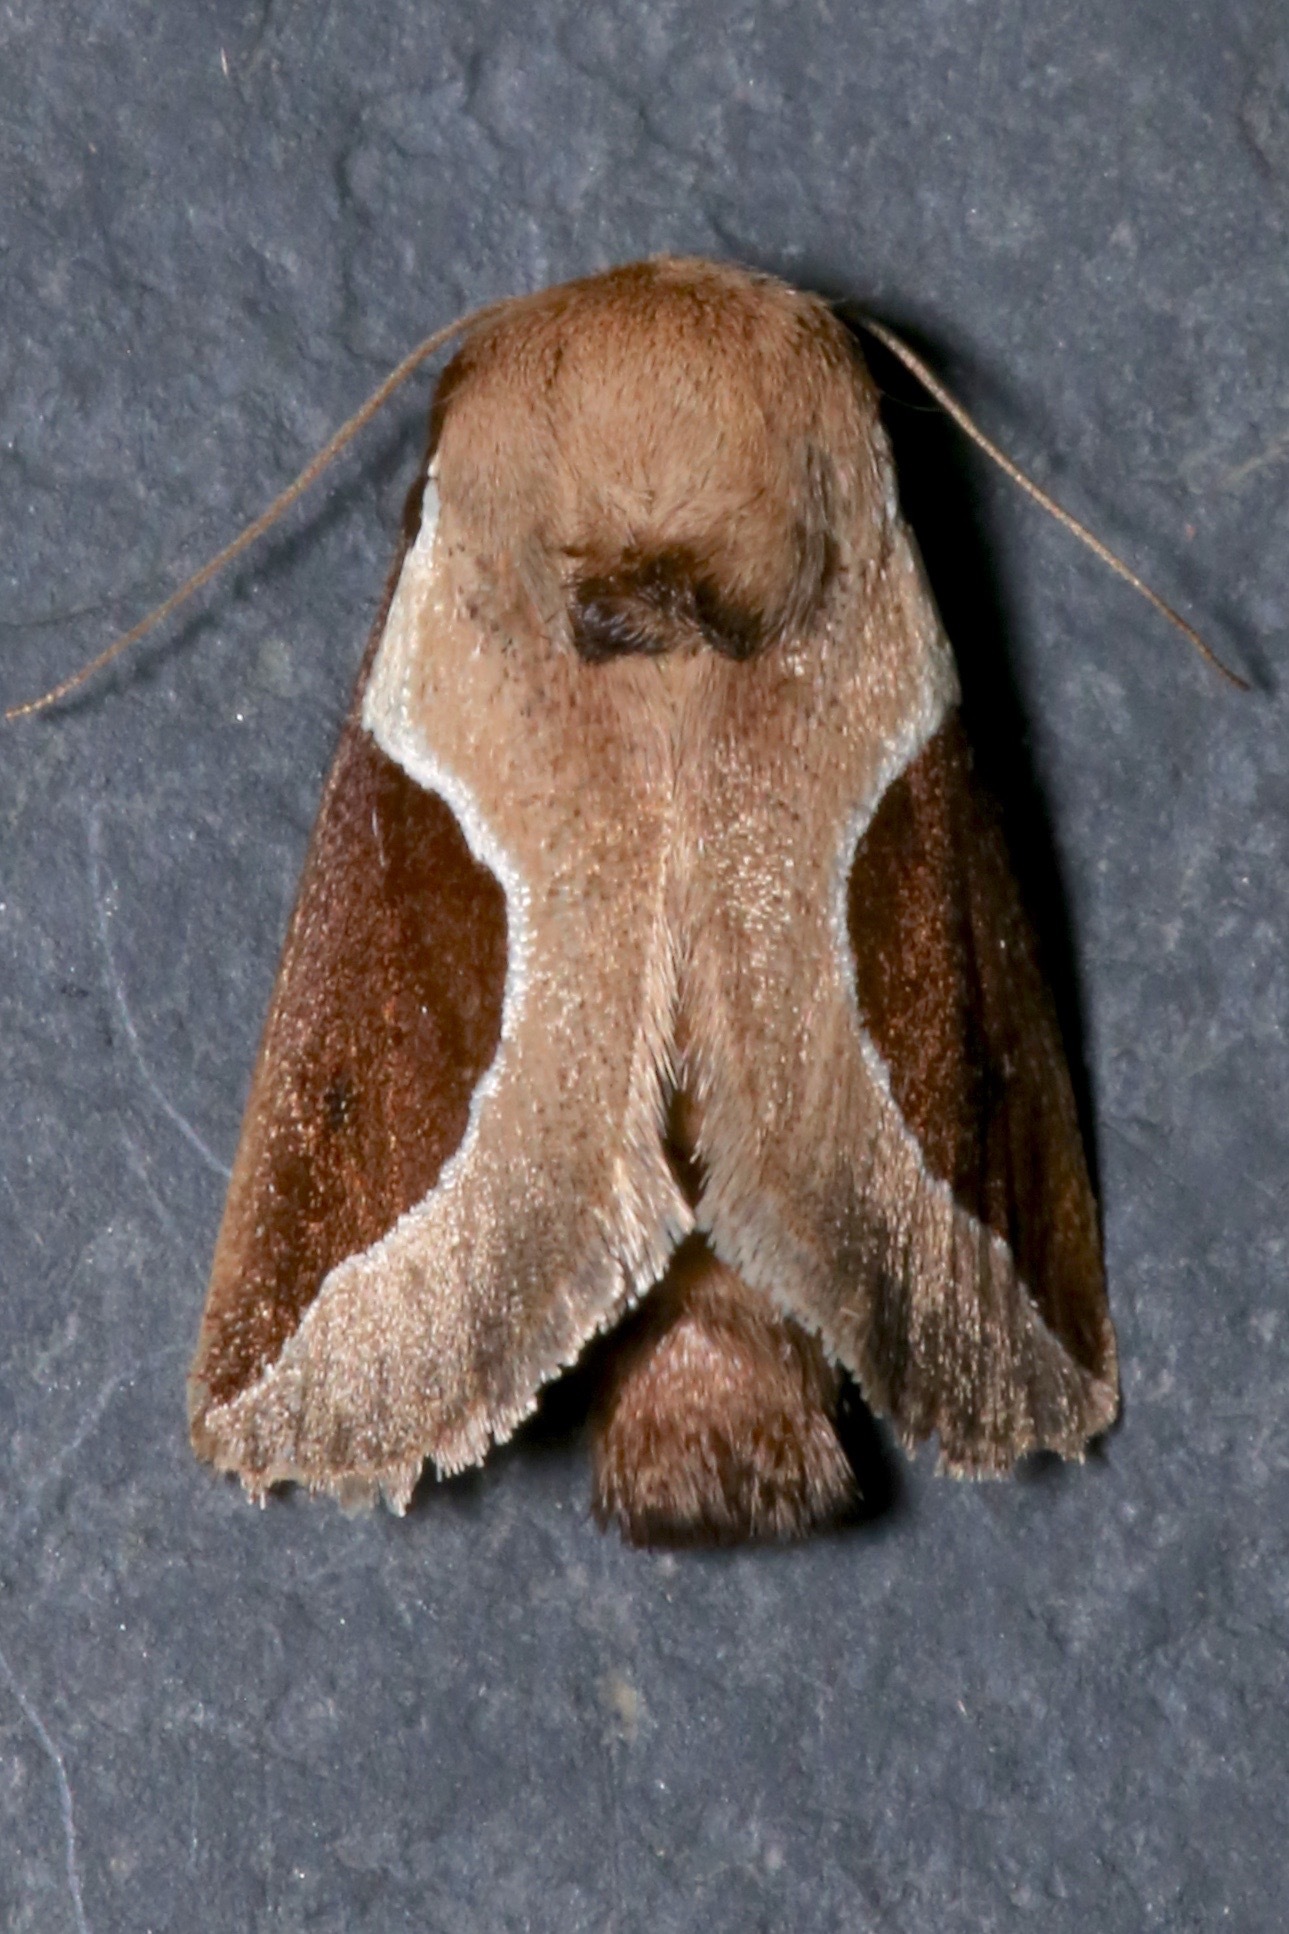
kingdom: Animalia
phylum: Arthropoda
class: Insecta
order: Lepidoptera
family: Limacodidae
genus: Prolimacodes
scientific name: Prolimacodes badia
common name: Skiff moth
